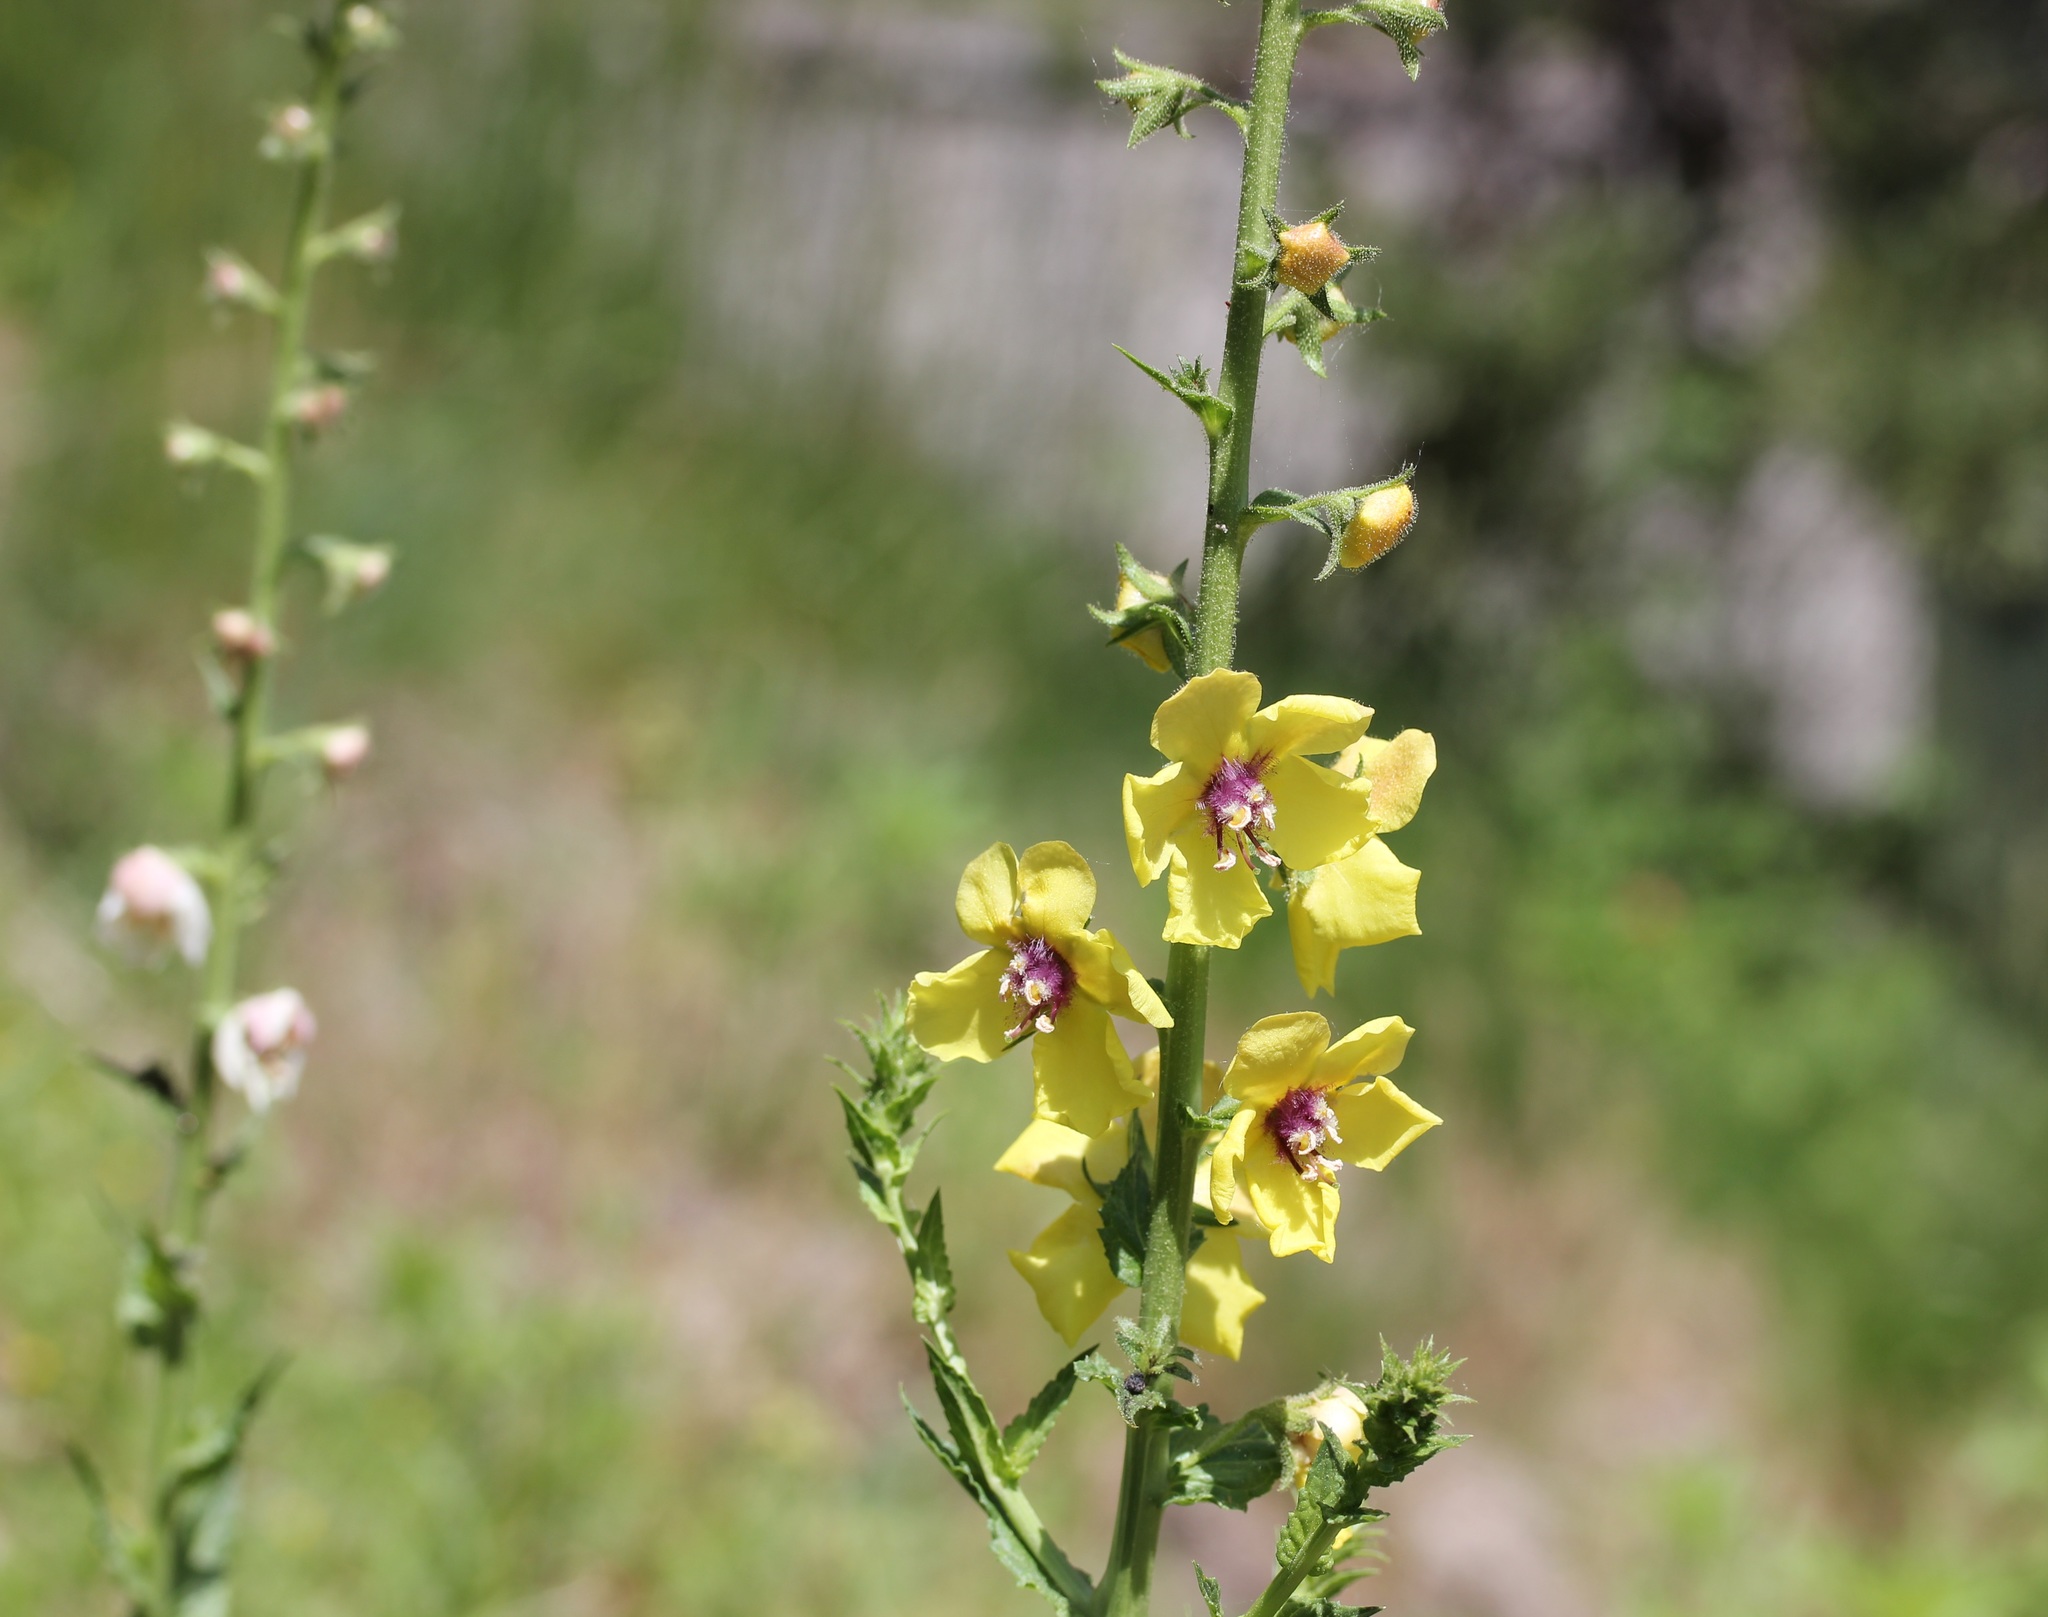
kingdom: Plantae
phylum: Tracheophyta
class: Magnoliopsida
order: Lamiales
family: Scrophulariaceae
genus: Verbascum
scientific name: Verbascum blattaria
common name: Moth mullein
